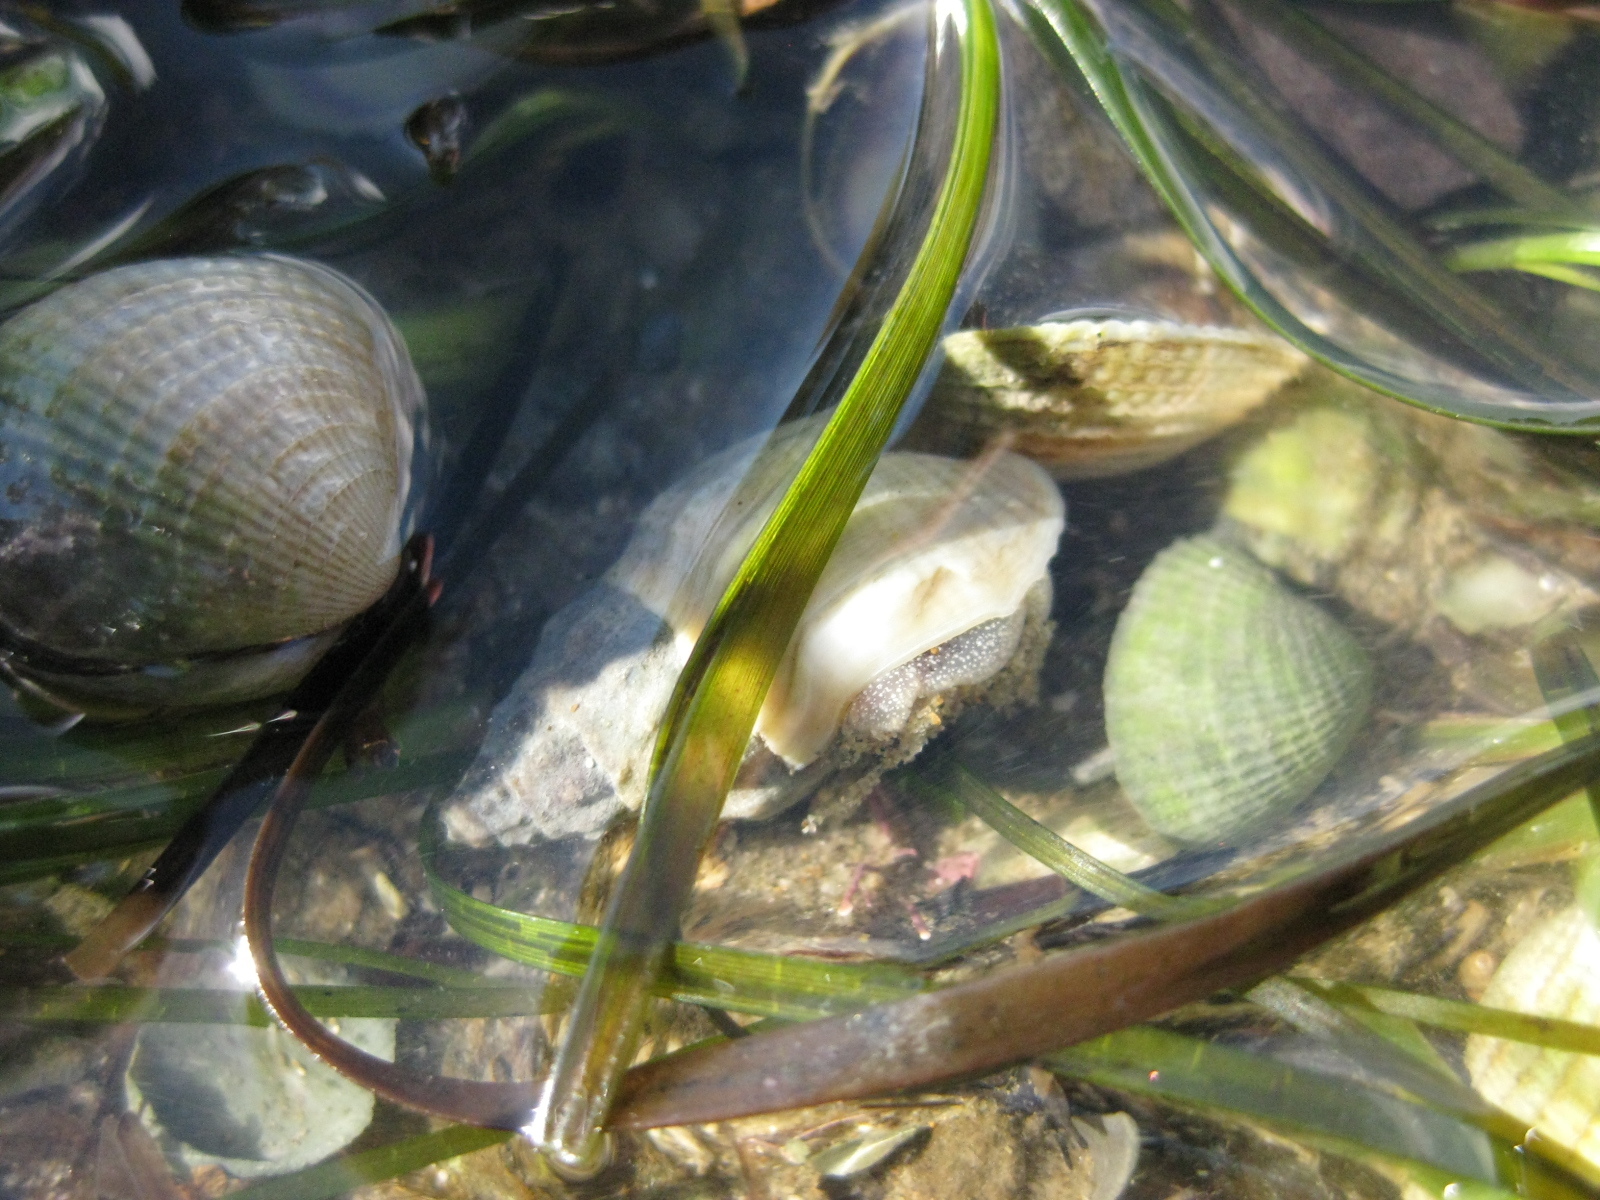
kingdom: Animalia
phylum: Mollusca
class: Gastropoda
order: Neogastropoda
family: Cominellidae
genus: Cominella
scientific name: Cominella glandiformis
